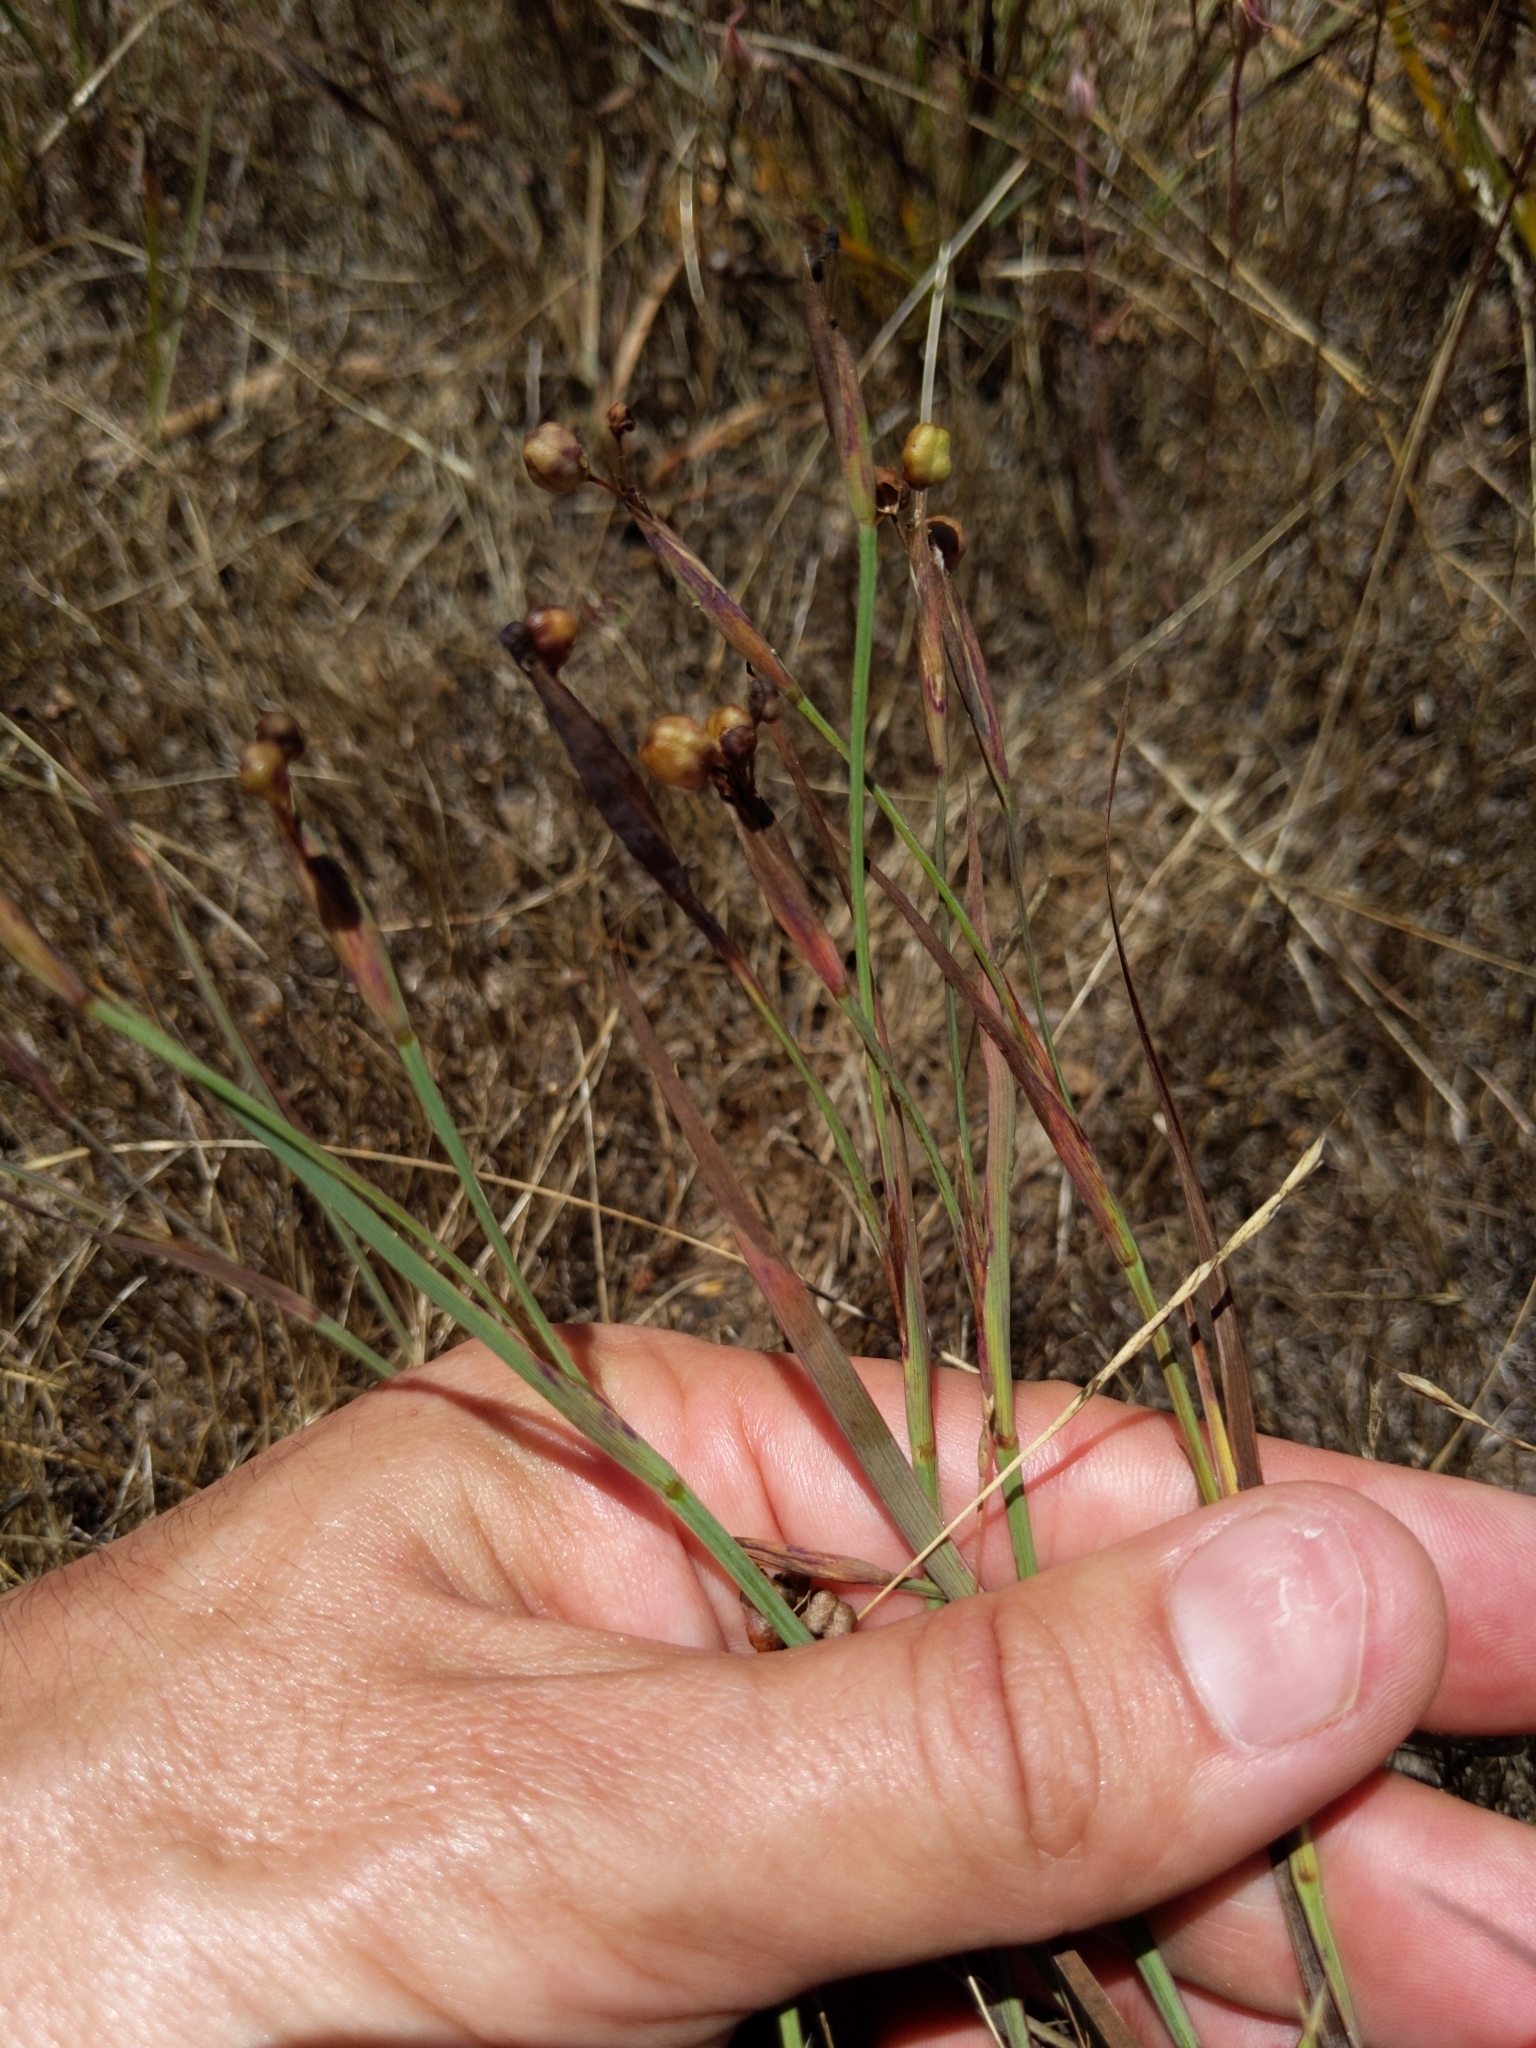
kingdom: Plantae
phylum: Tracheophyta
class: Liliopsida
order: Asparagales
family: Iridaceae
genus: Sisyrinchium
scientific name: Sisyrinchium bellum
